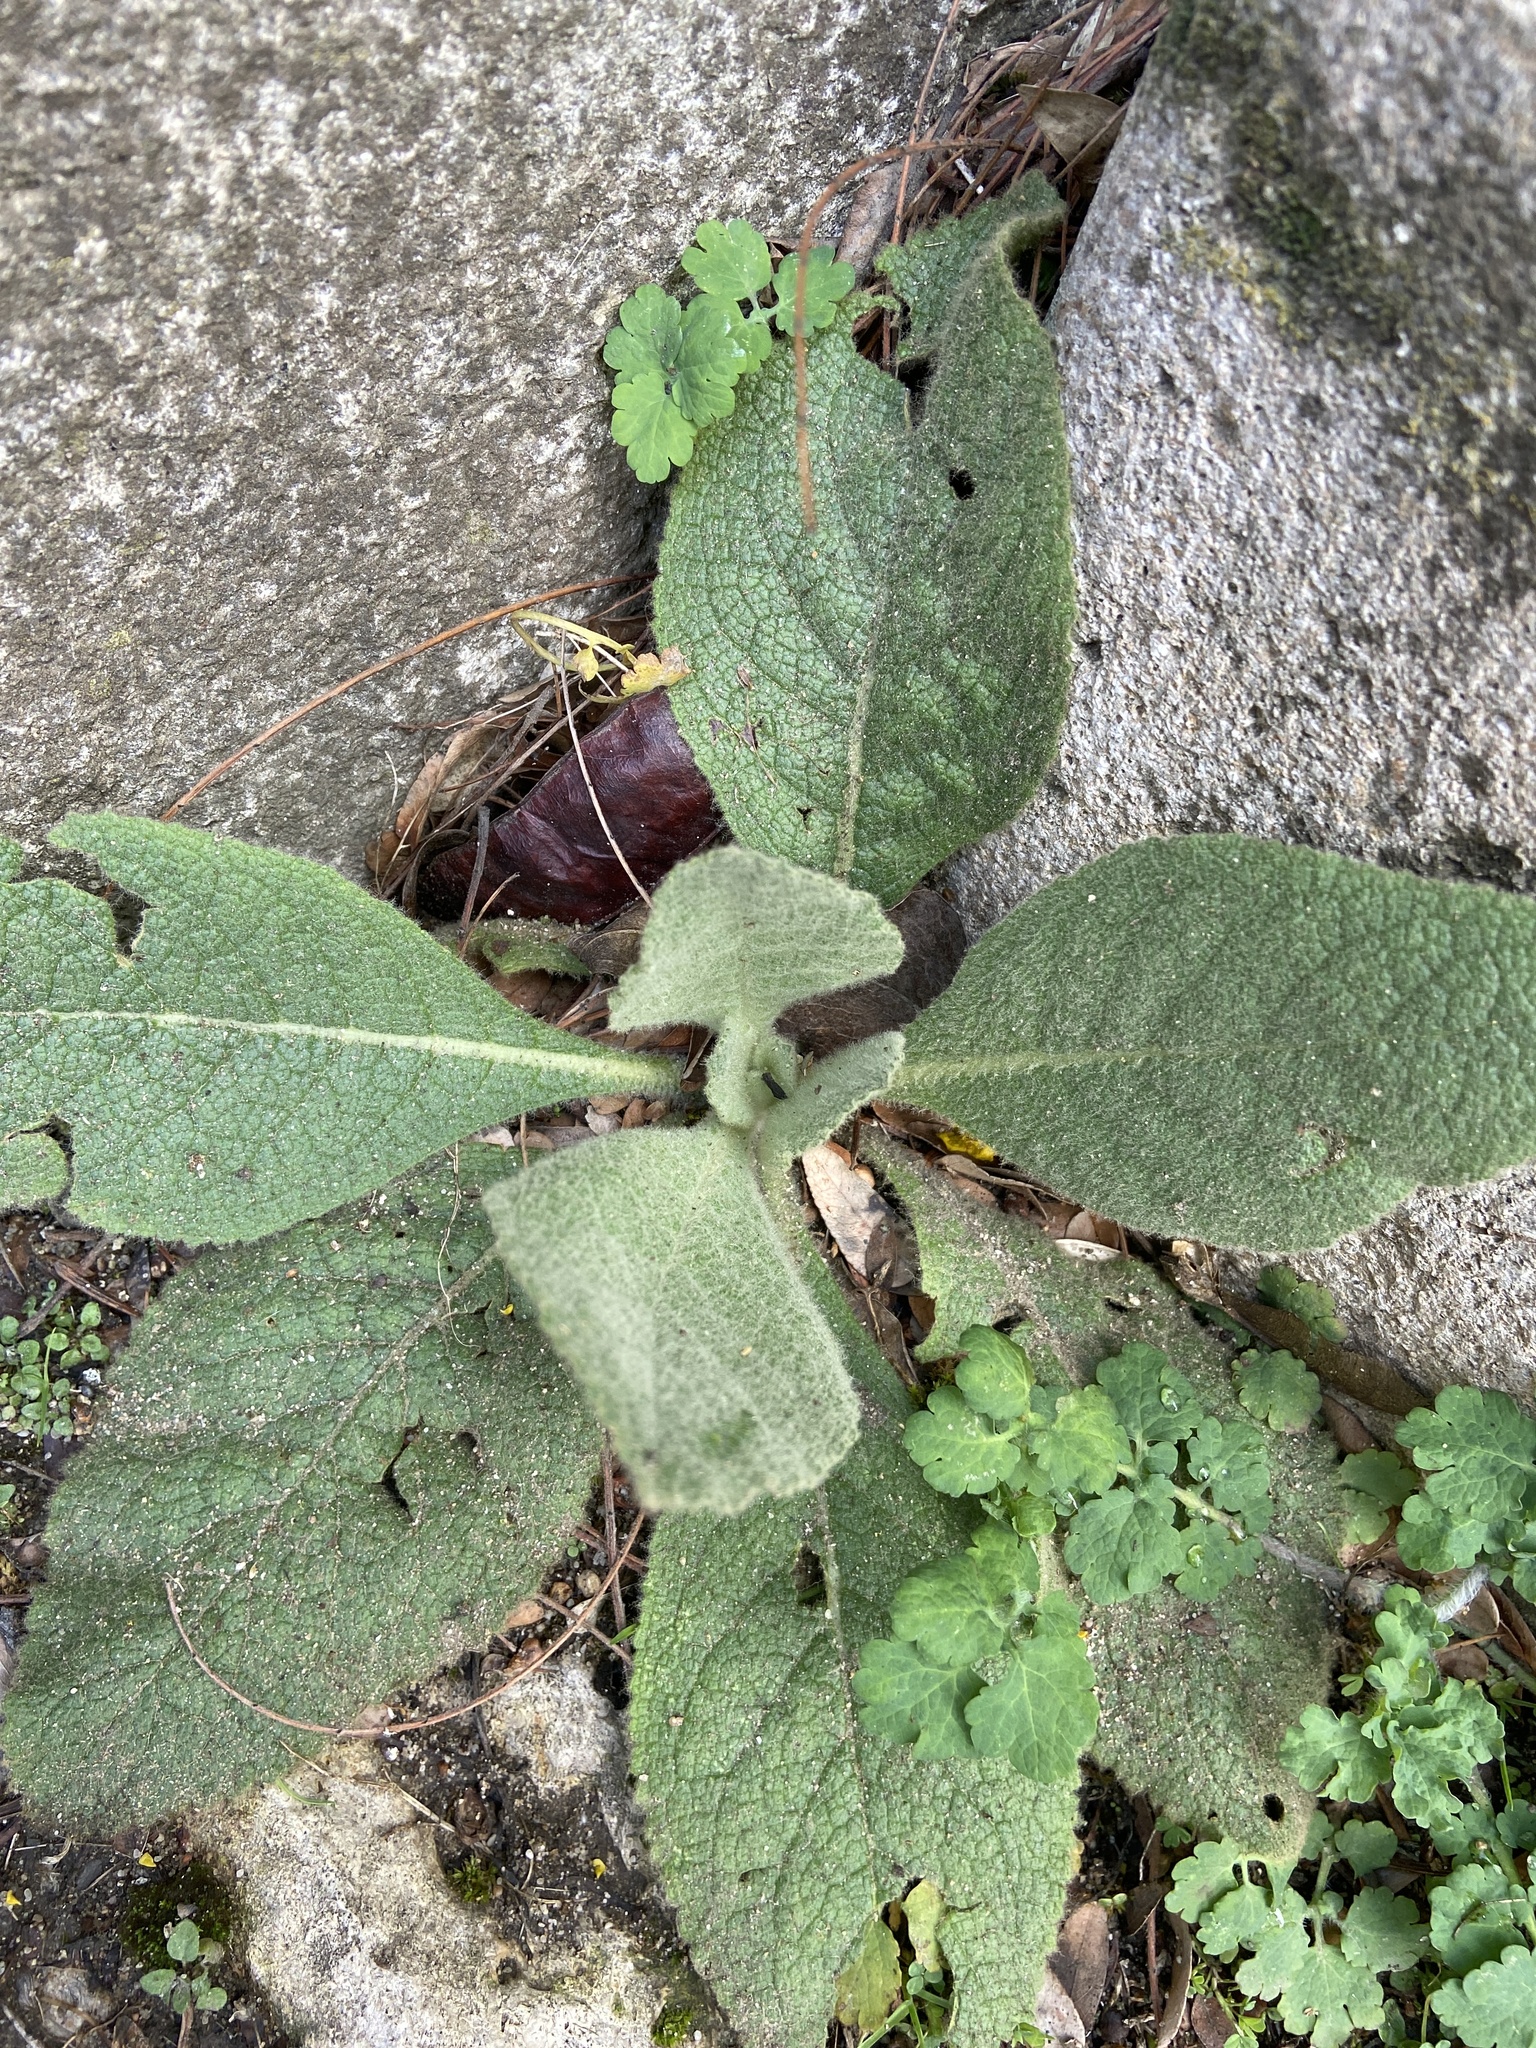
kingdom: Plantae
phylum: Tracheophyta
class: Magnoliopsida
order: Lamiales
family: Scrophulariaceae
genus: Verbascum
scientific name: Verbascum thapsus
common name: Common mullein
